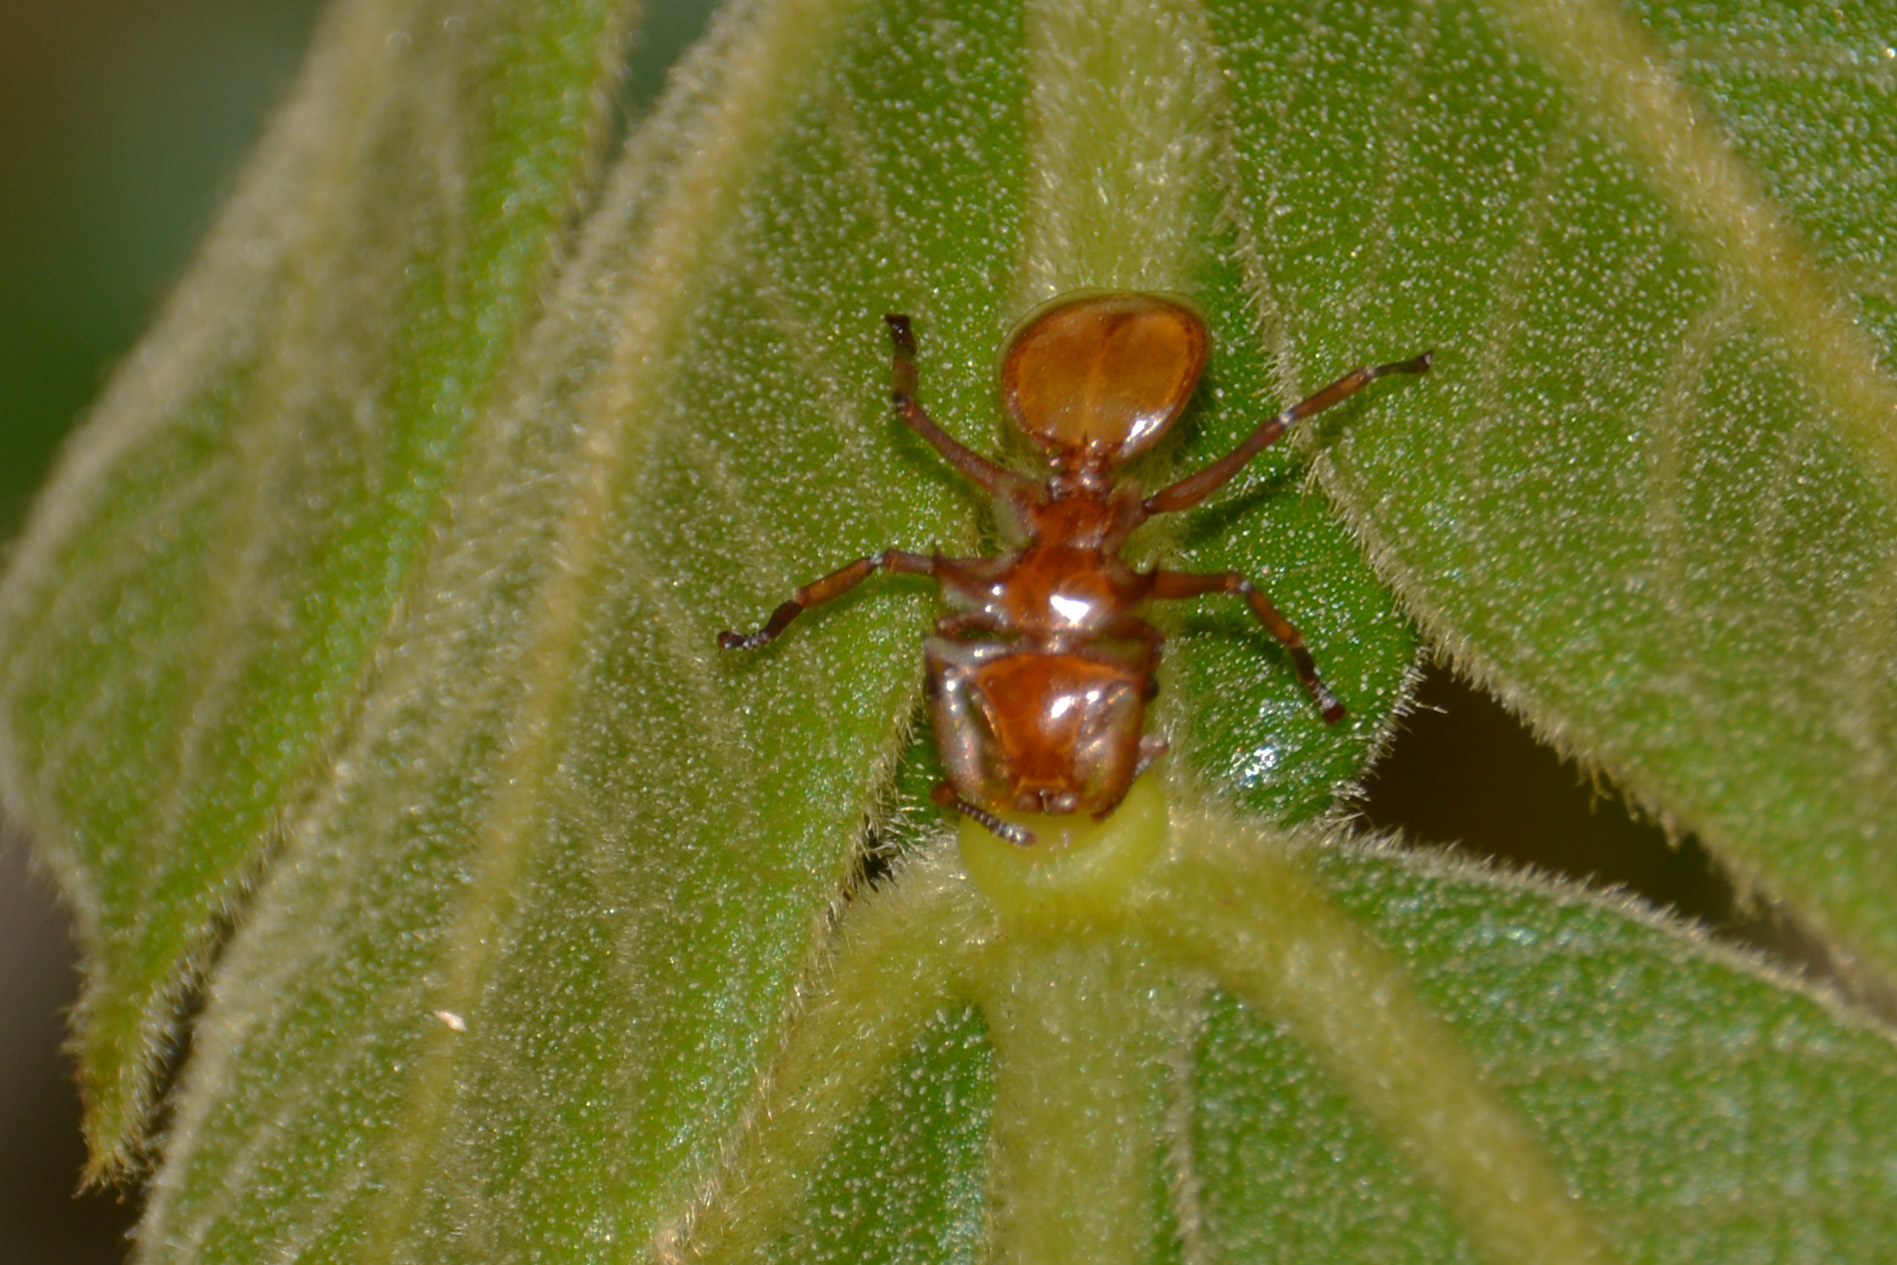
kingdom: Animalia
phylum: Arthropoda
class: Insecta
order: Hymenoptera
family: Formicidae
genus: Cephalotes
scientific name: Cephalotes clypeatus
